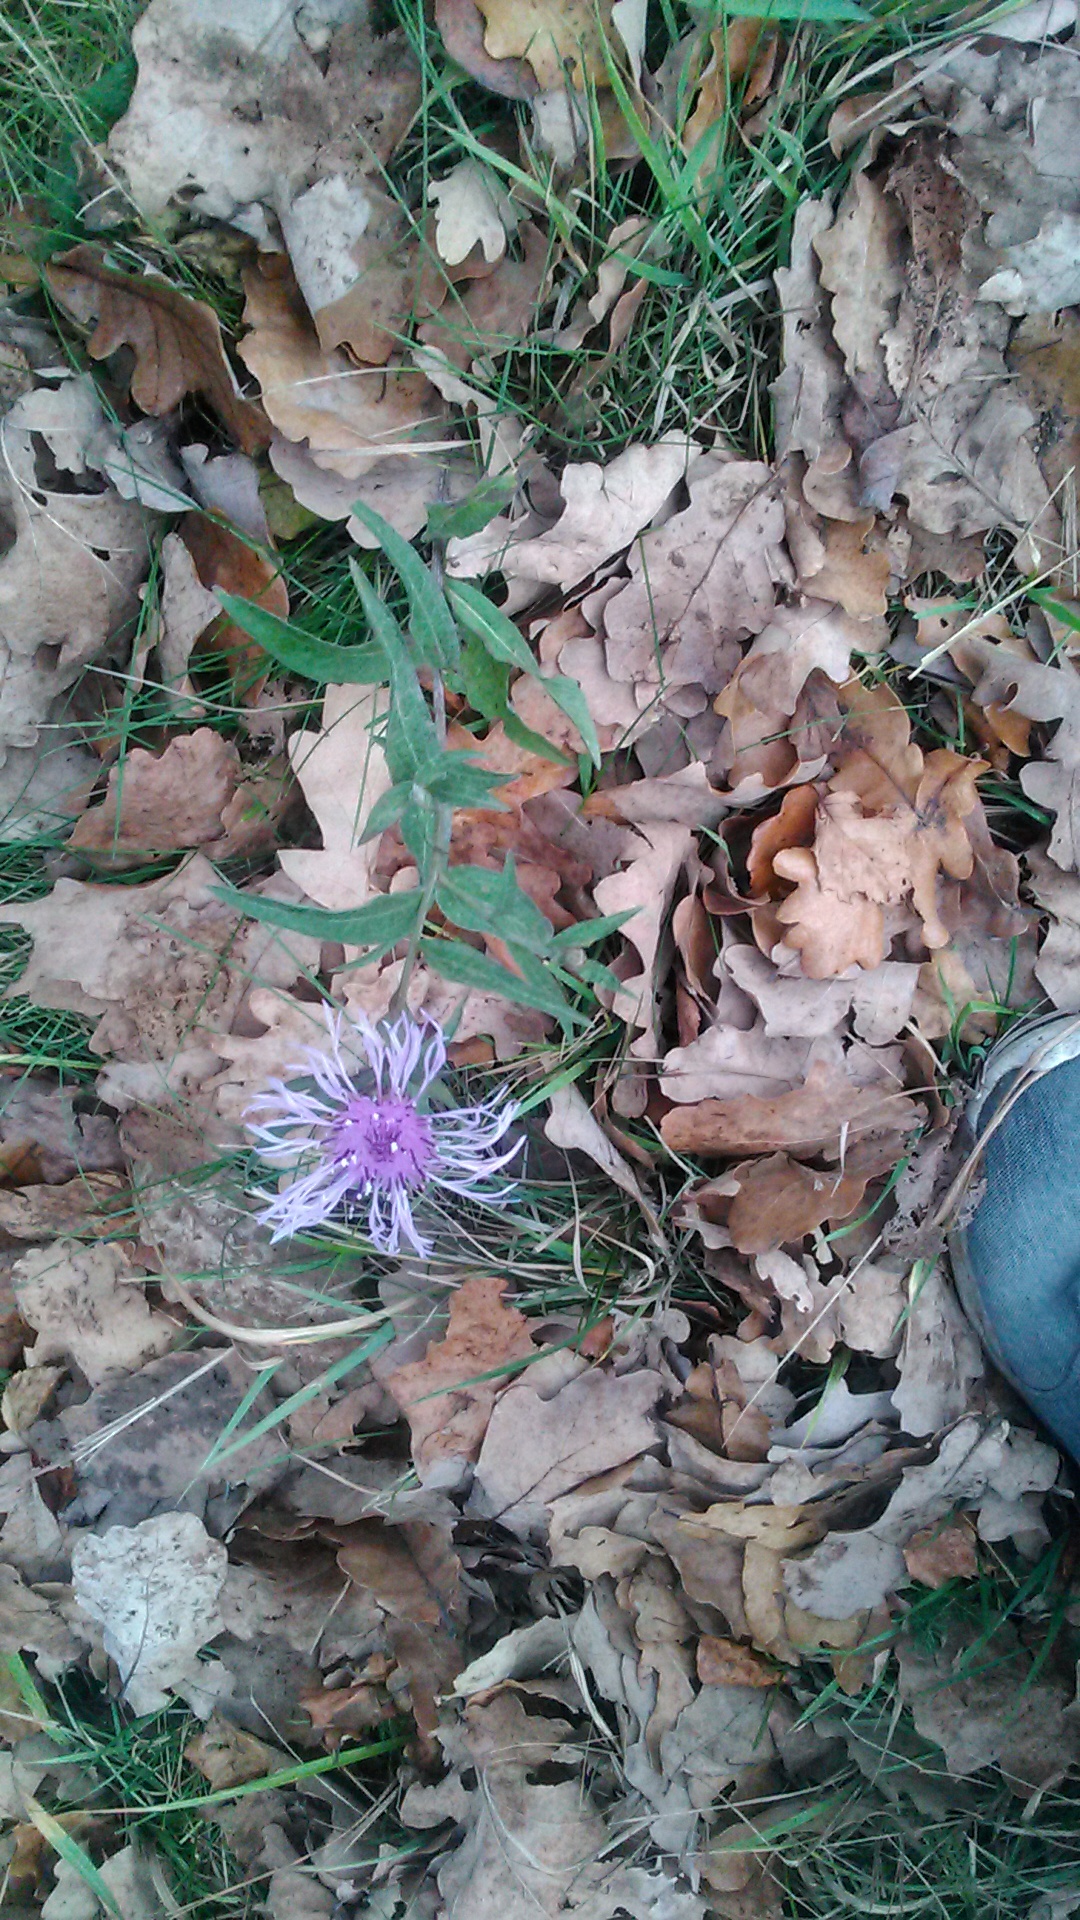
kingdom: Plantae
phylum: Tracheophyta
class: Magnoliopsida
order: Asterales
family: Asteraceae
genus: Centaurea
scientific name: Centaurea jacea
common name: Brown knapweed
